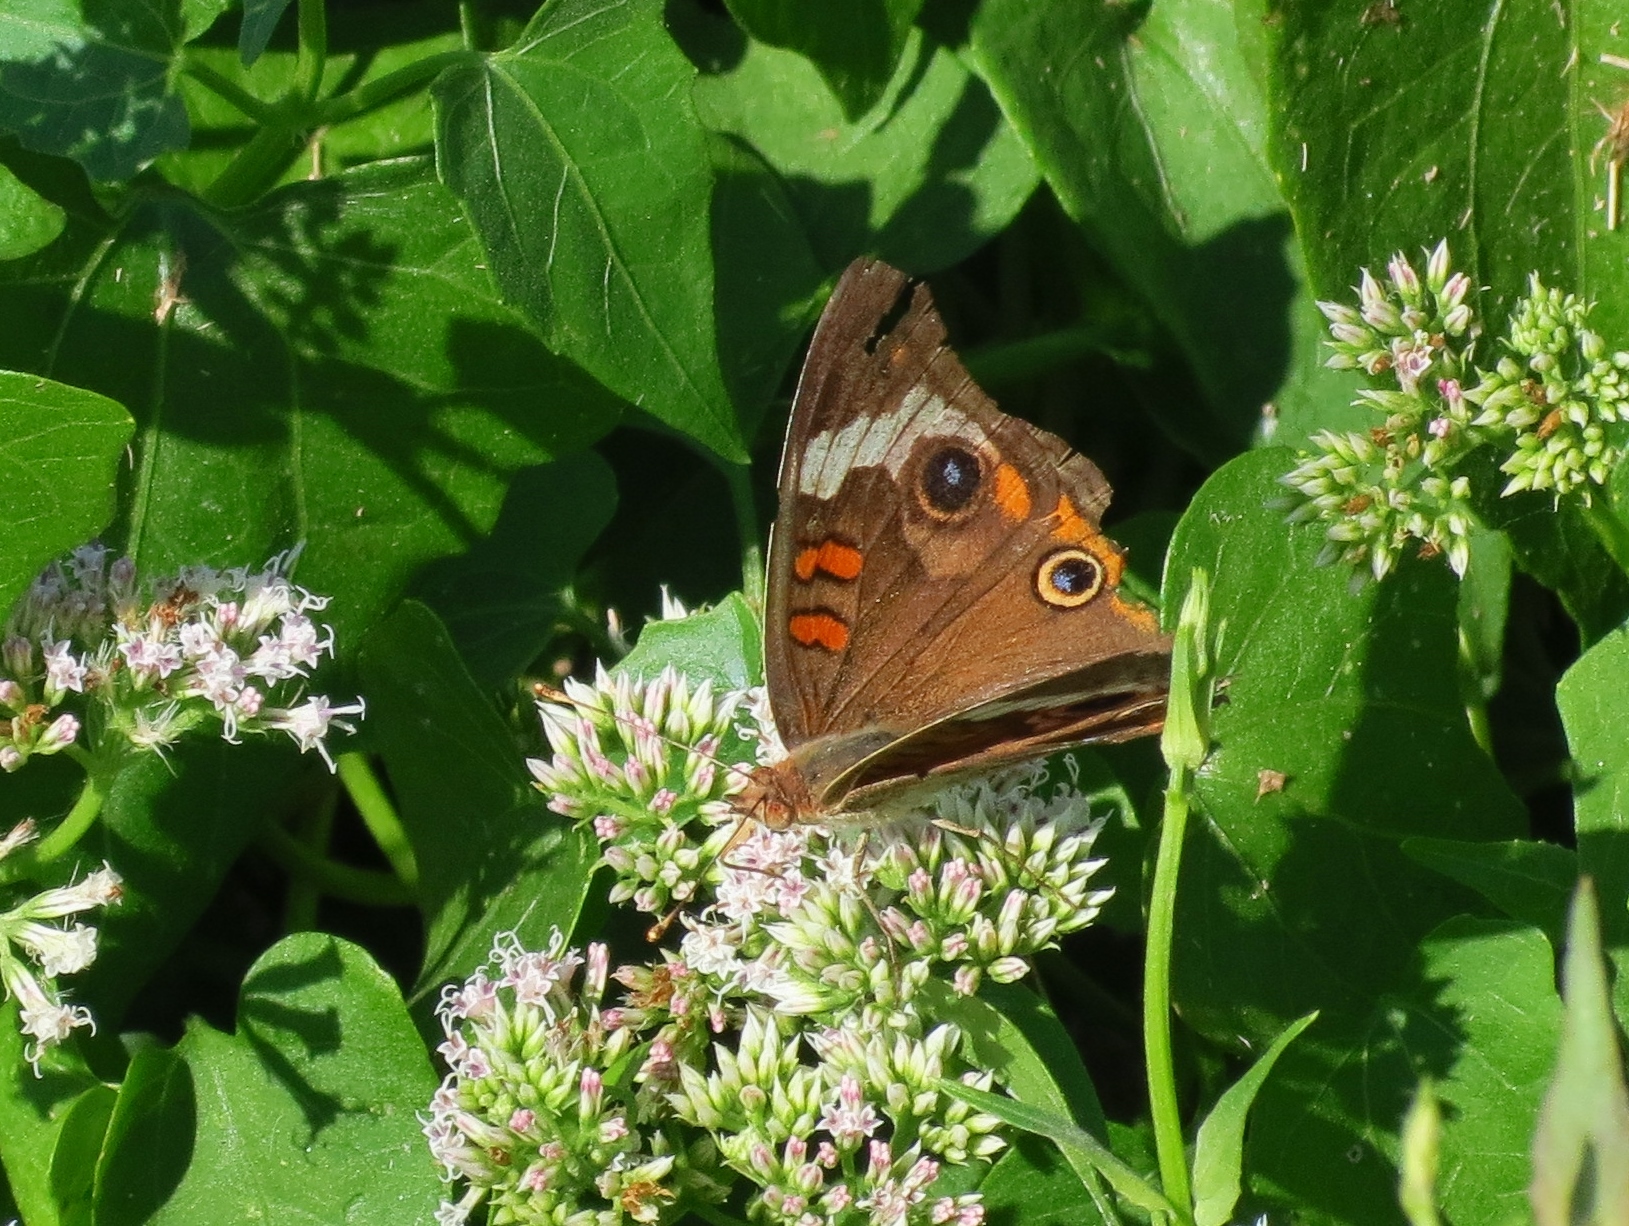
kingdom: Animalia
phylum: Arthropoda
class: Insecta
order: Lepidoptera
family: Nymphalidae
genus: Junonia
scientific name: Junonia coenia
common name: Common buckeye
